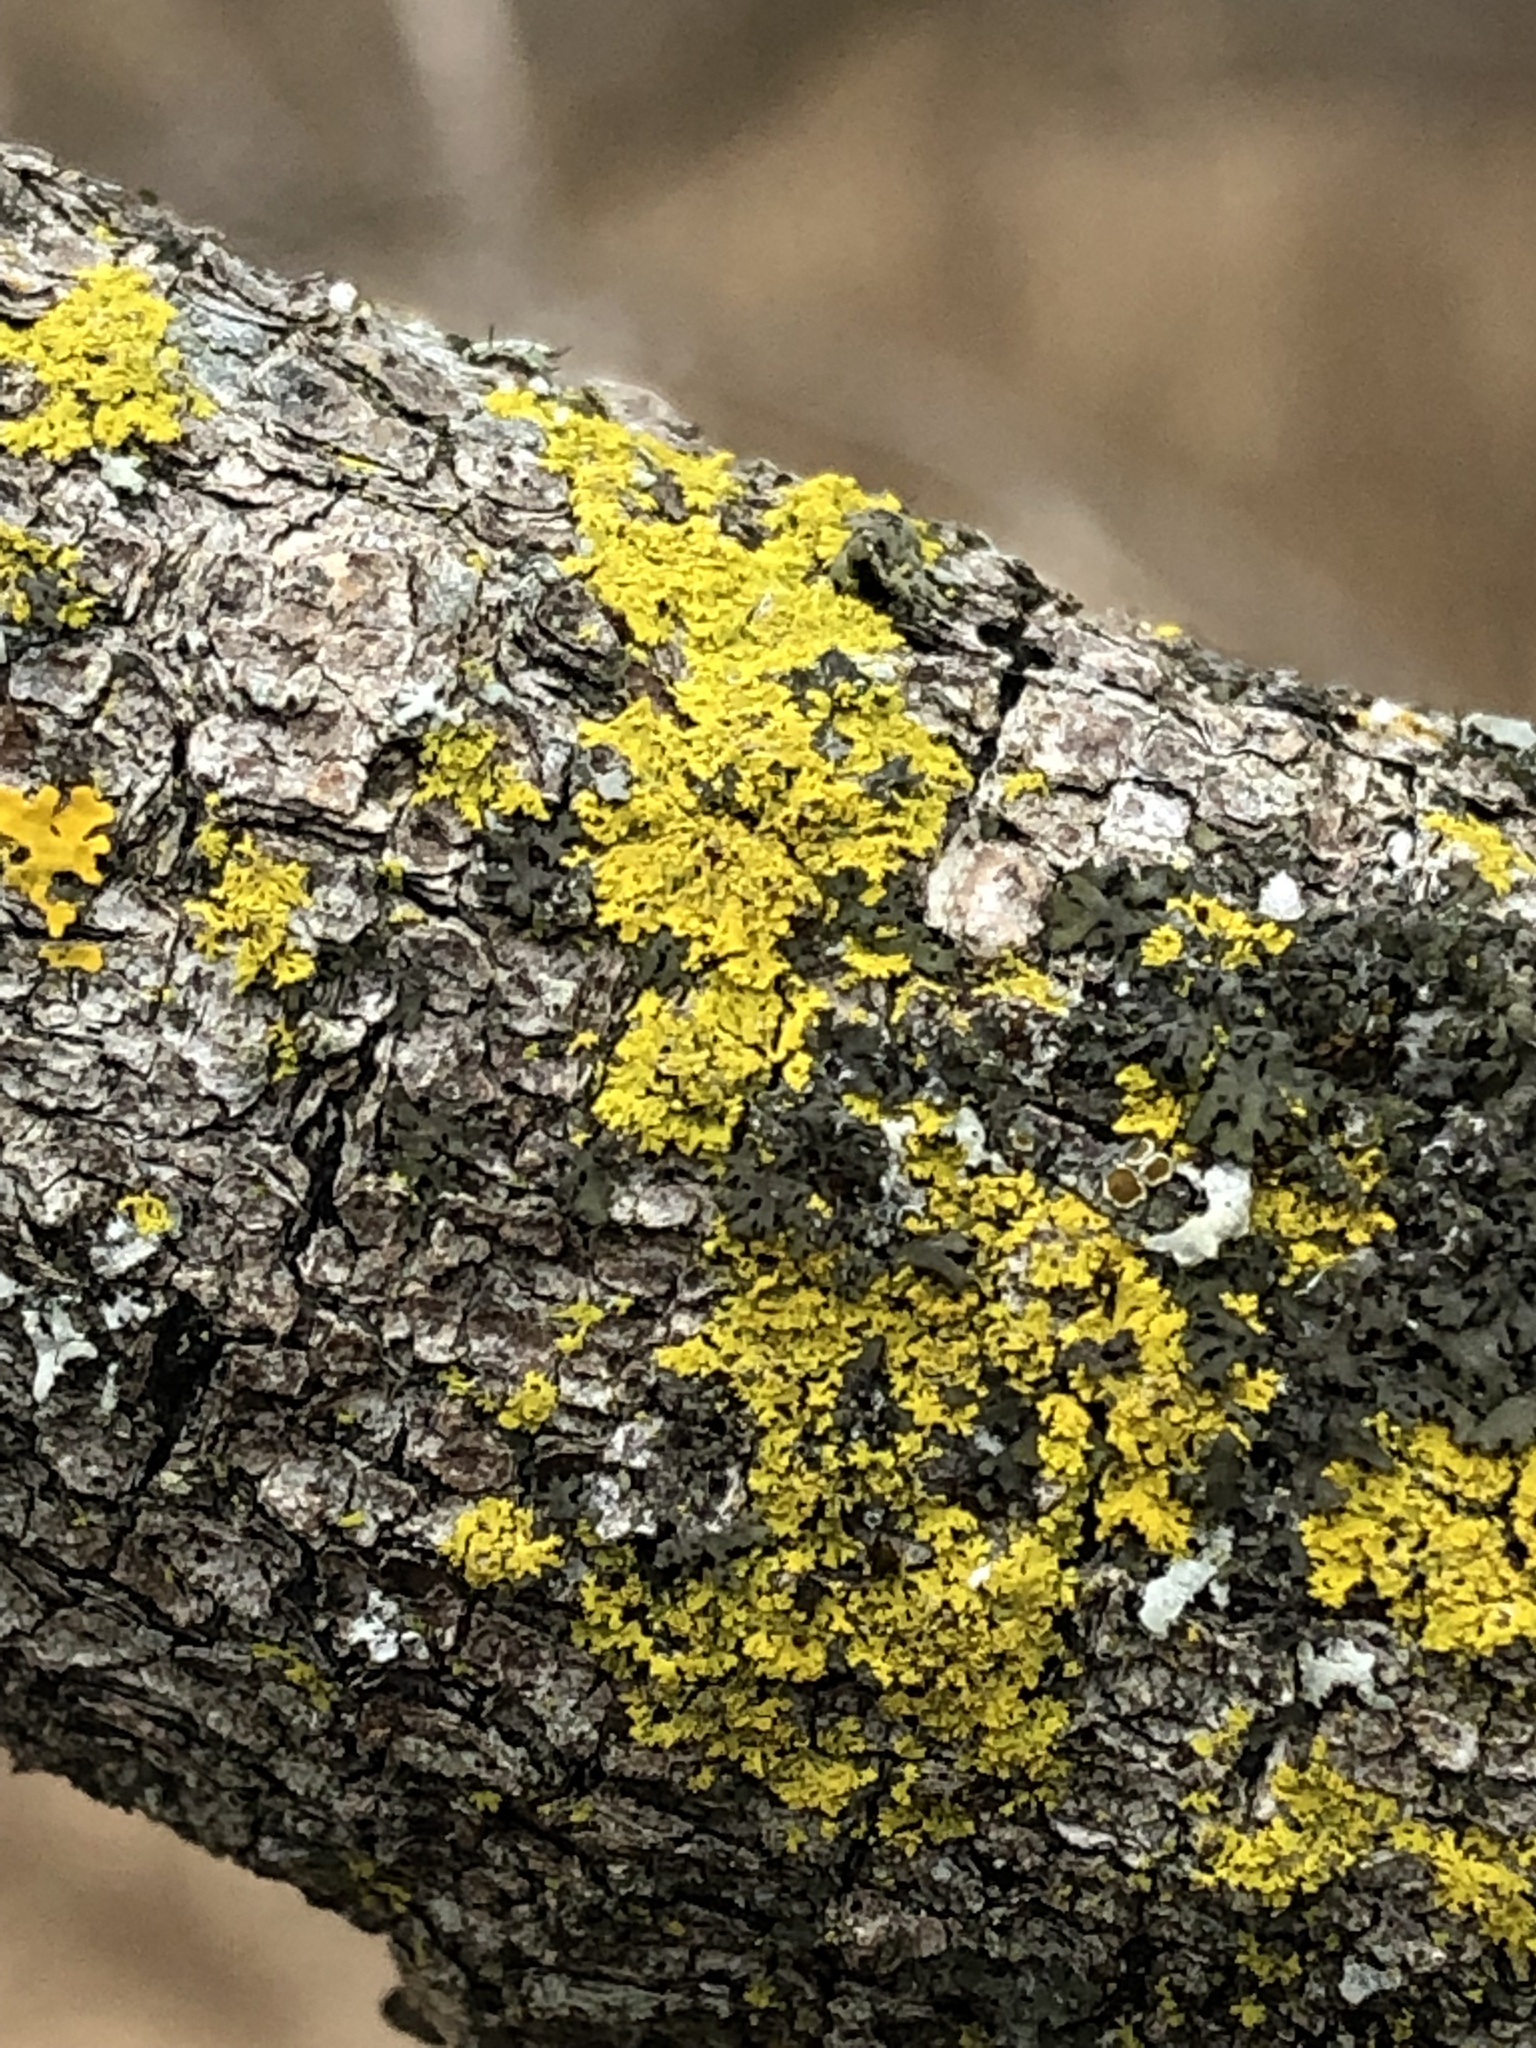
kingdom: Fungi
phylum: Ascomycota
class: Candelariomycetes
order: Candelariales
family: Candelariaceae
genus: Candelaria
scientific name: Candelaria concolor
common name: Candleflame lichen
